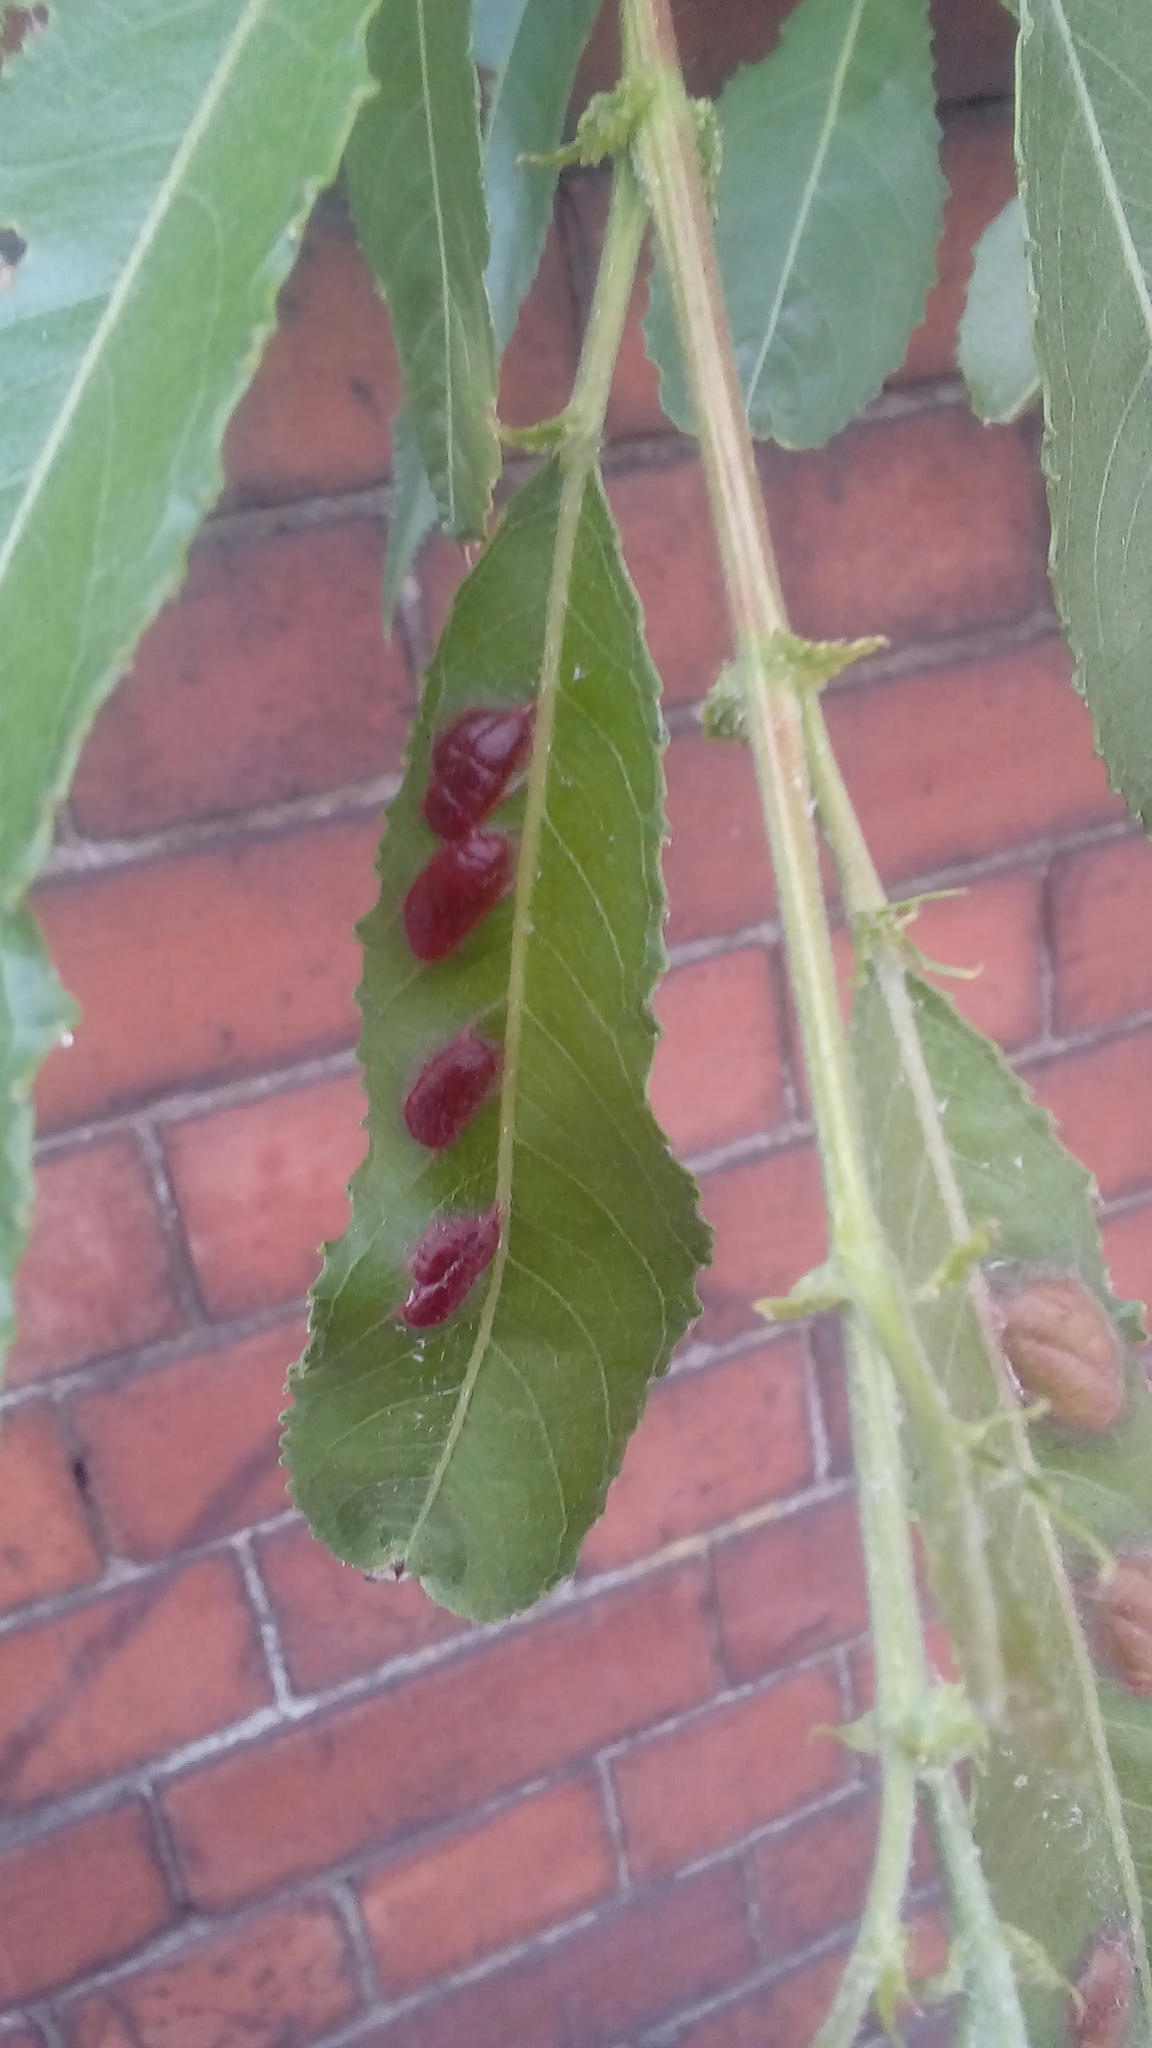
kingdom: Animalia
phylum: Arthropoda
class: Insecta
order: Hymenoptera
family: Tenthredinidae
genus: Pontania
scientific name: Pontania proxima
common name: Common sawfly
